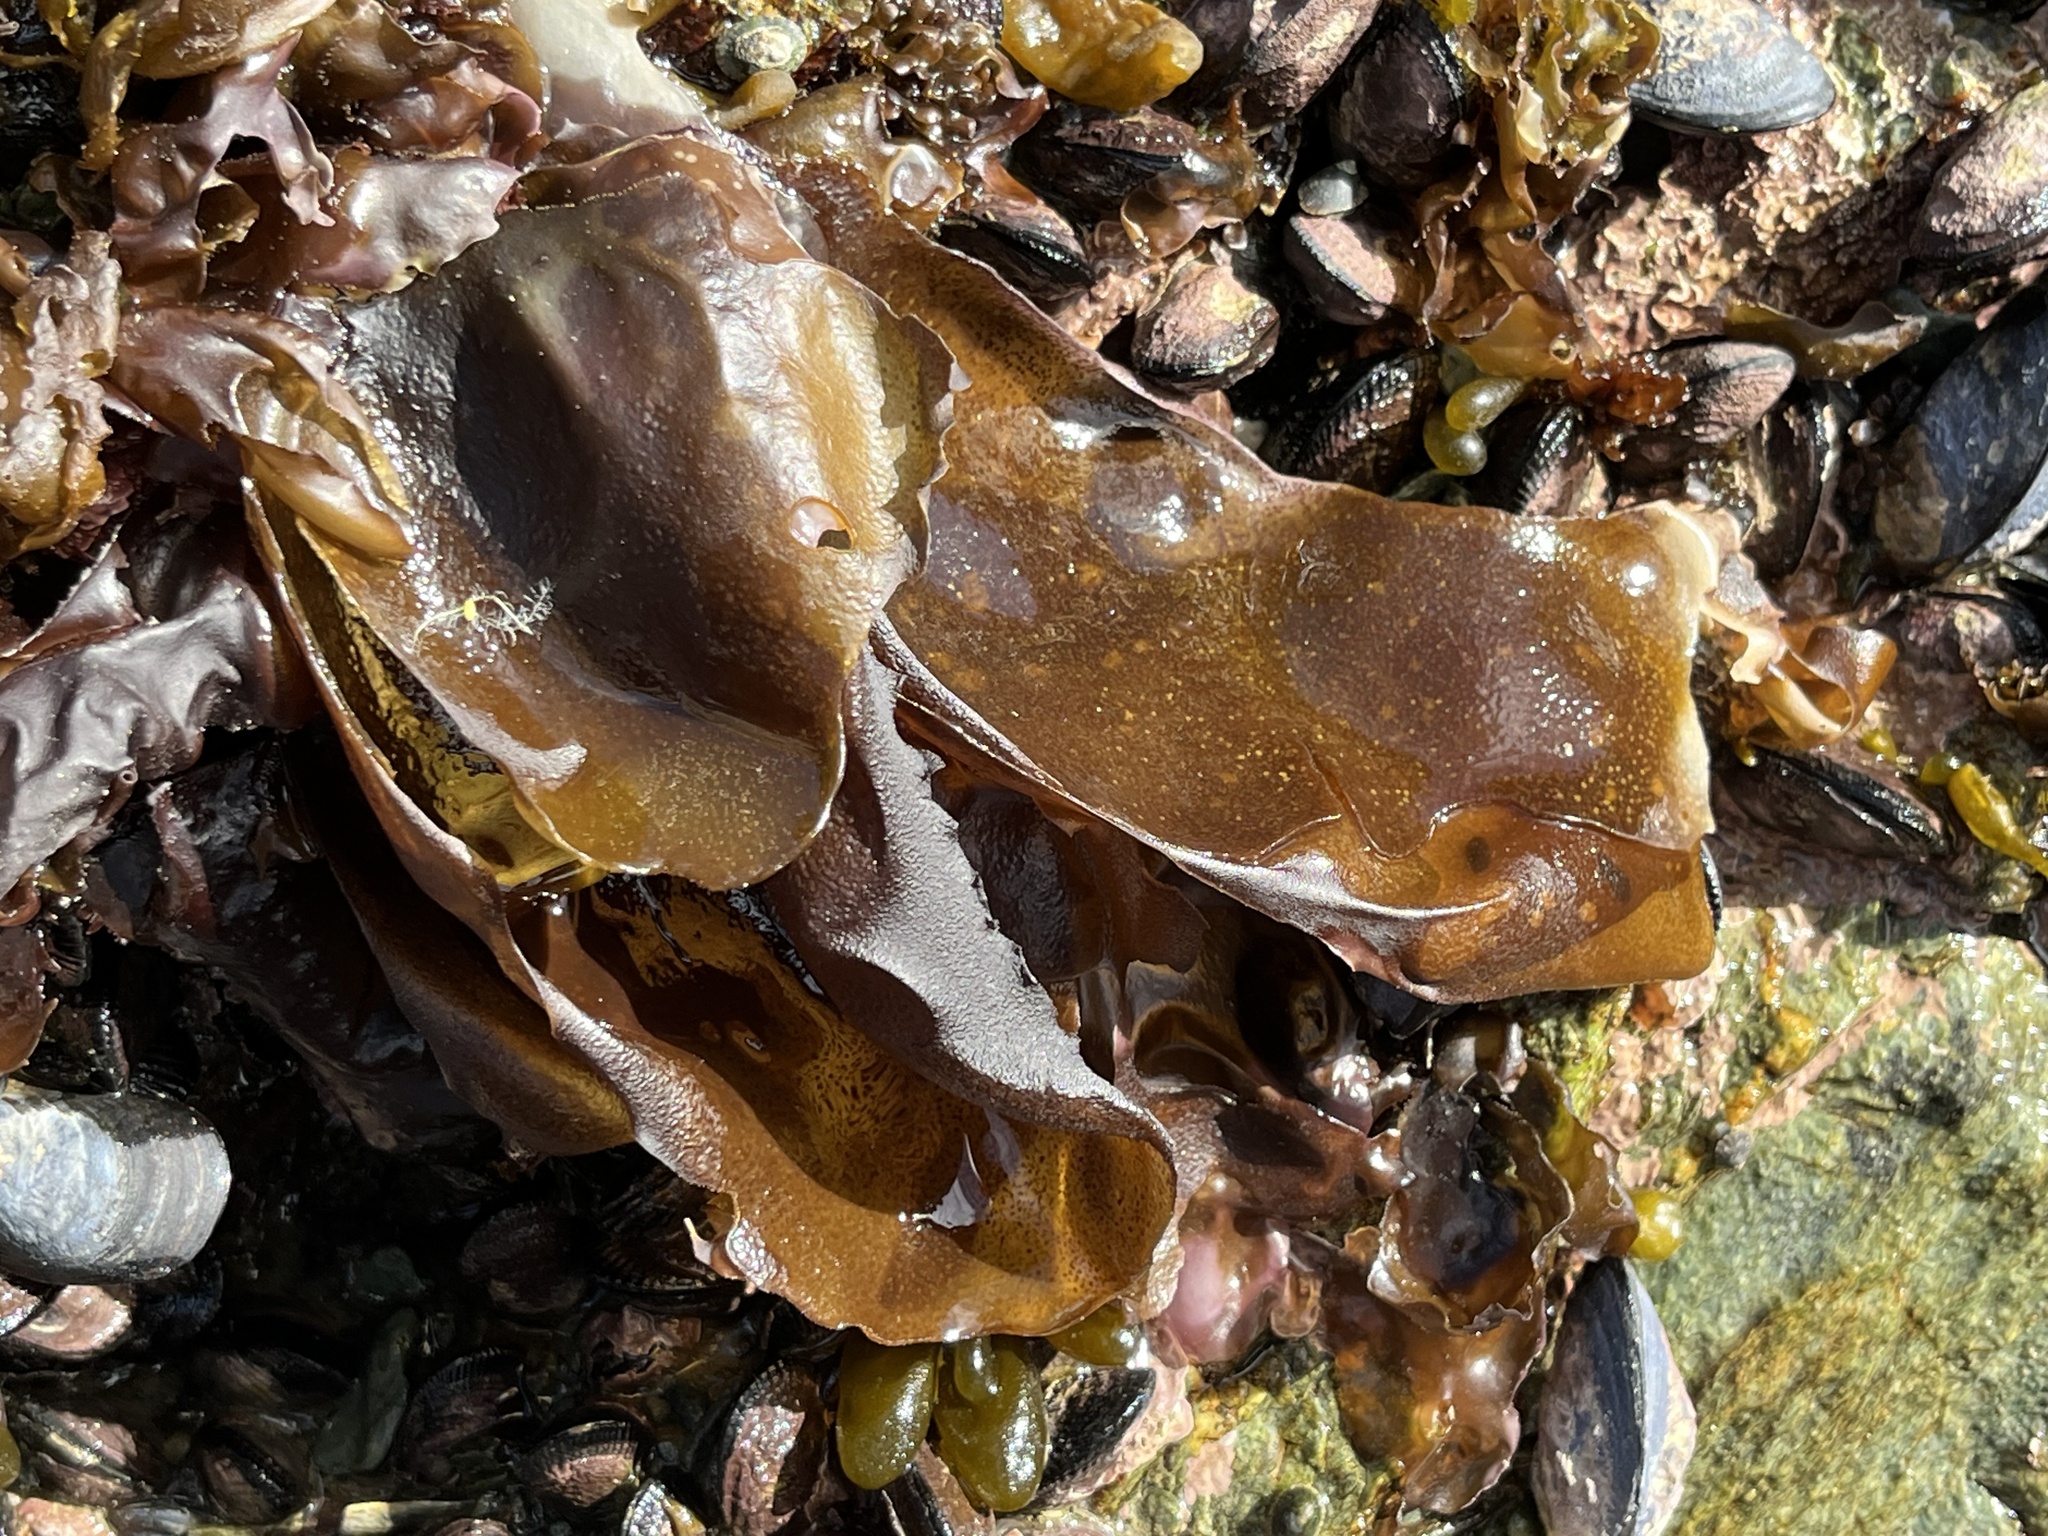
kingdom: Plantae
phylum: Rhodophyta
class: Florideophyceae
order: Gigartinales
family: Gigartinaceae
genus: Mazzaella
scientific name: Mazzaella laminarioides
